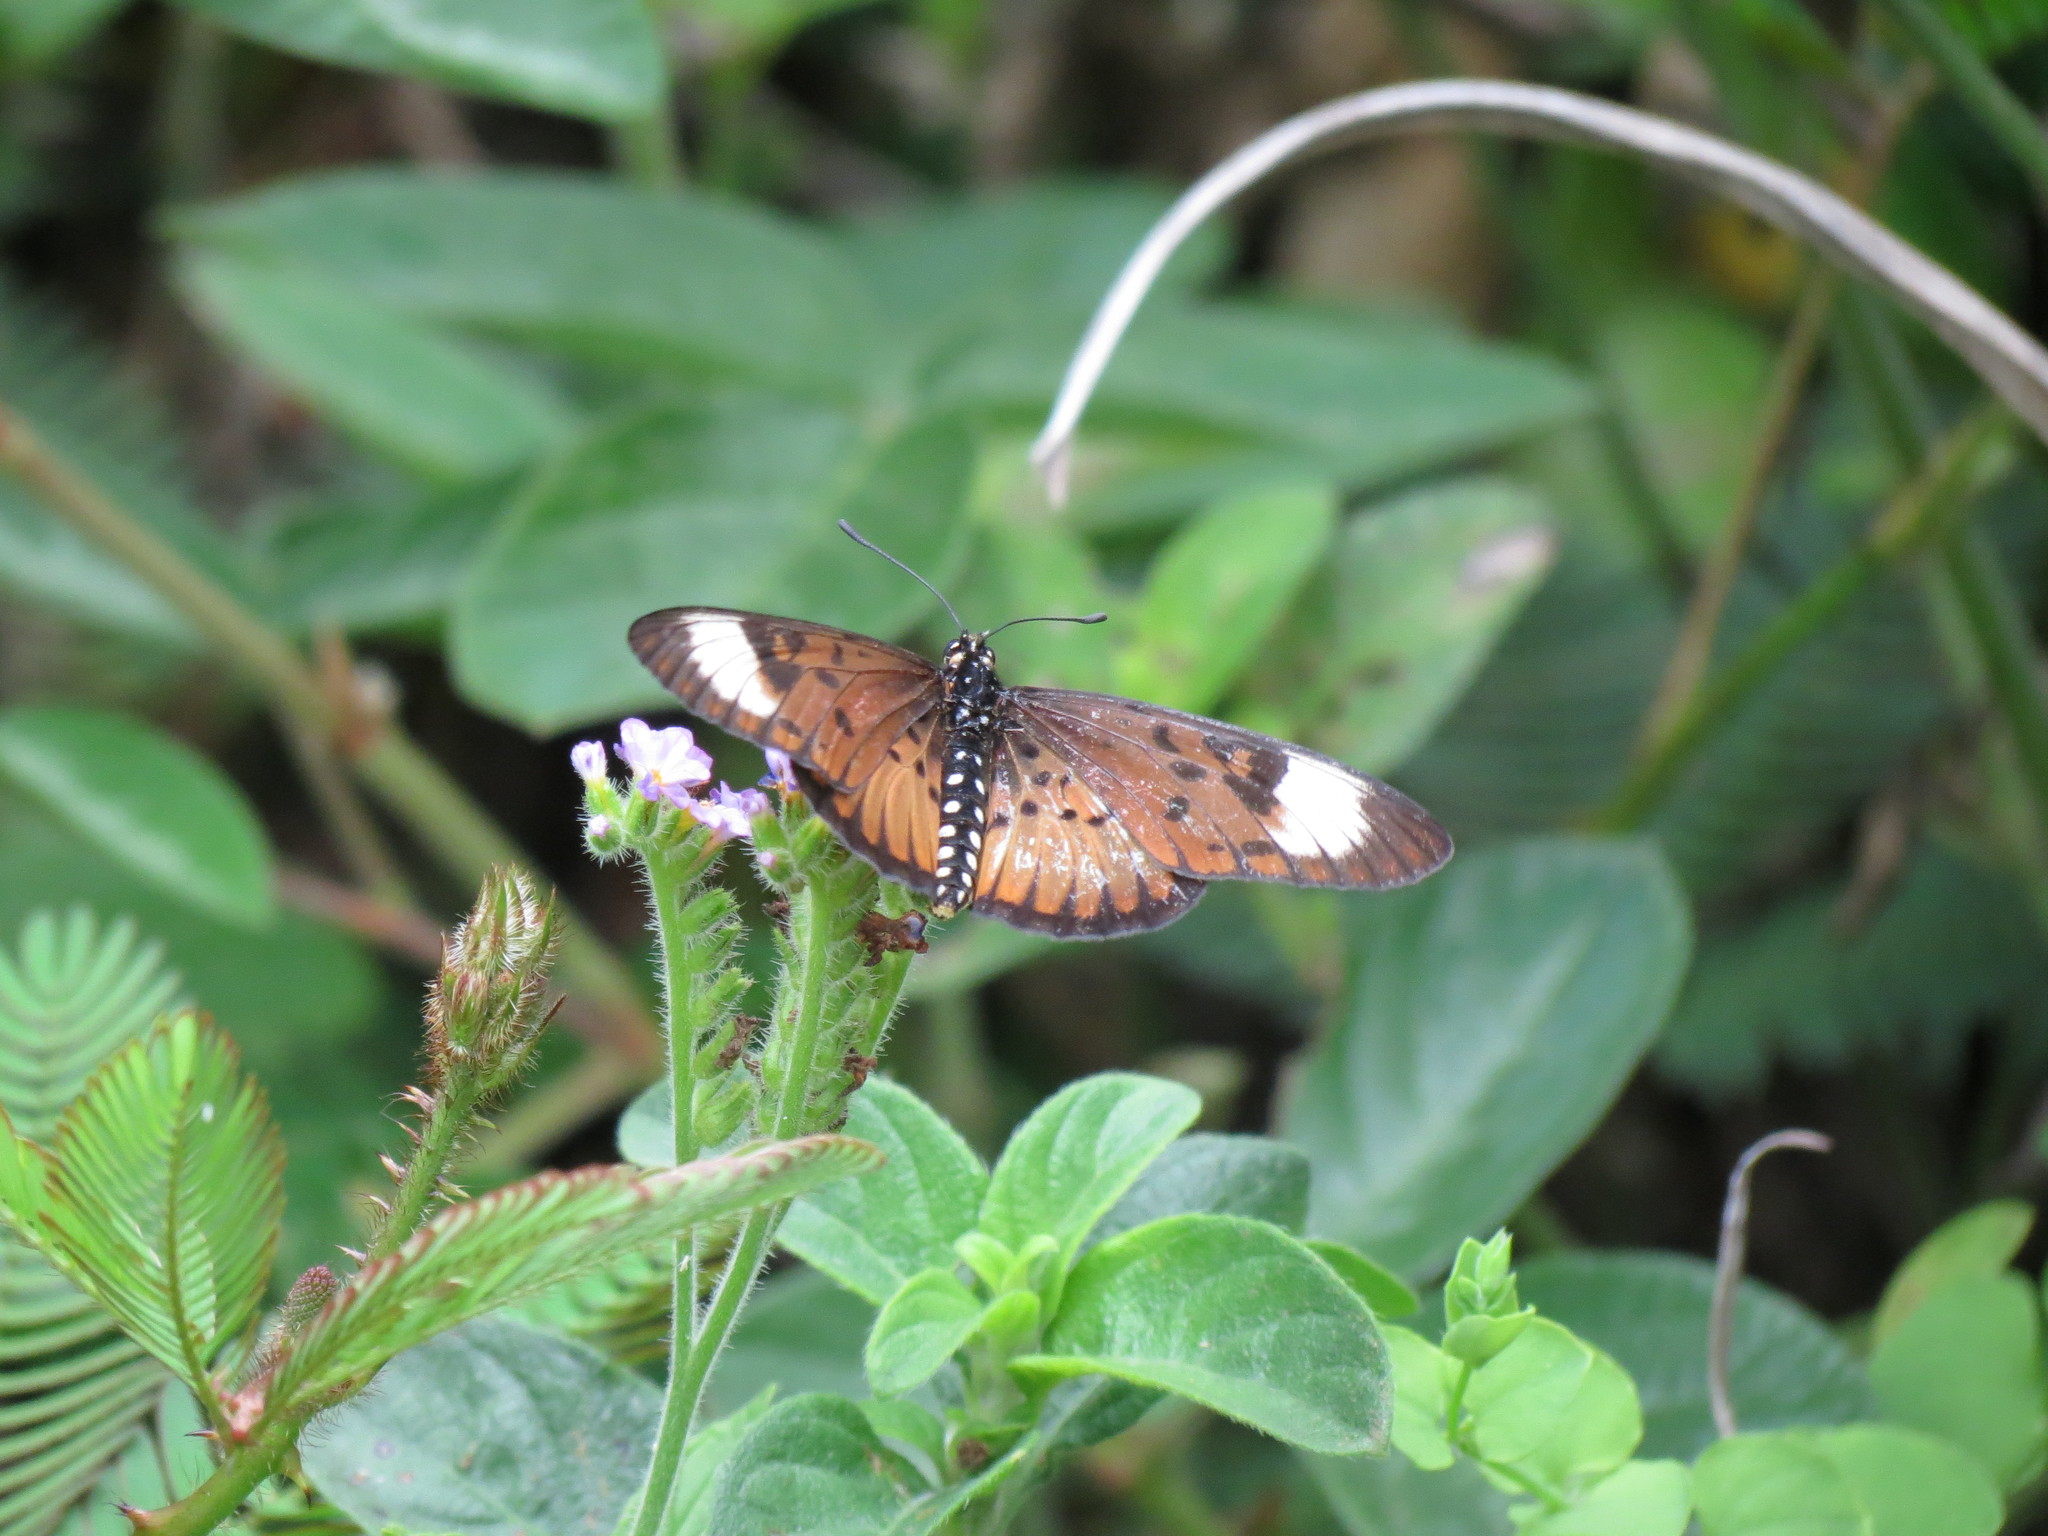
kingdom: Animalia
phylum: Arthropoda
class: Insecta
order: Lepidoptera
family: Nymphalidae
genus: Rubraea
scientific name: Rubraea
